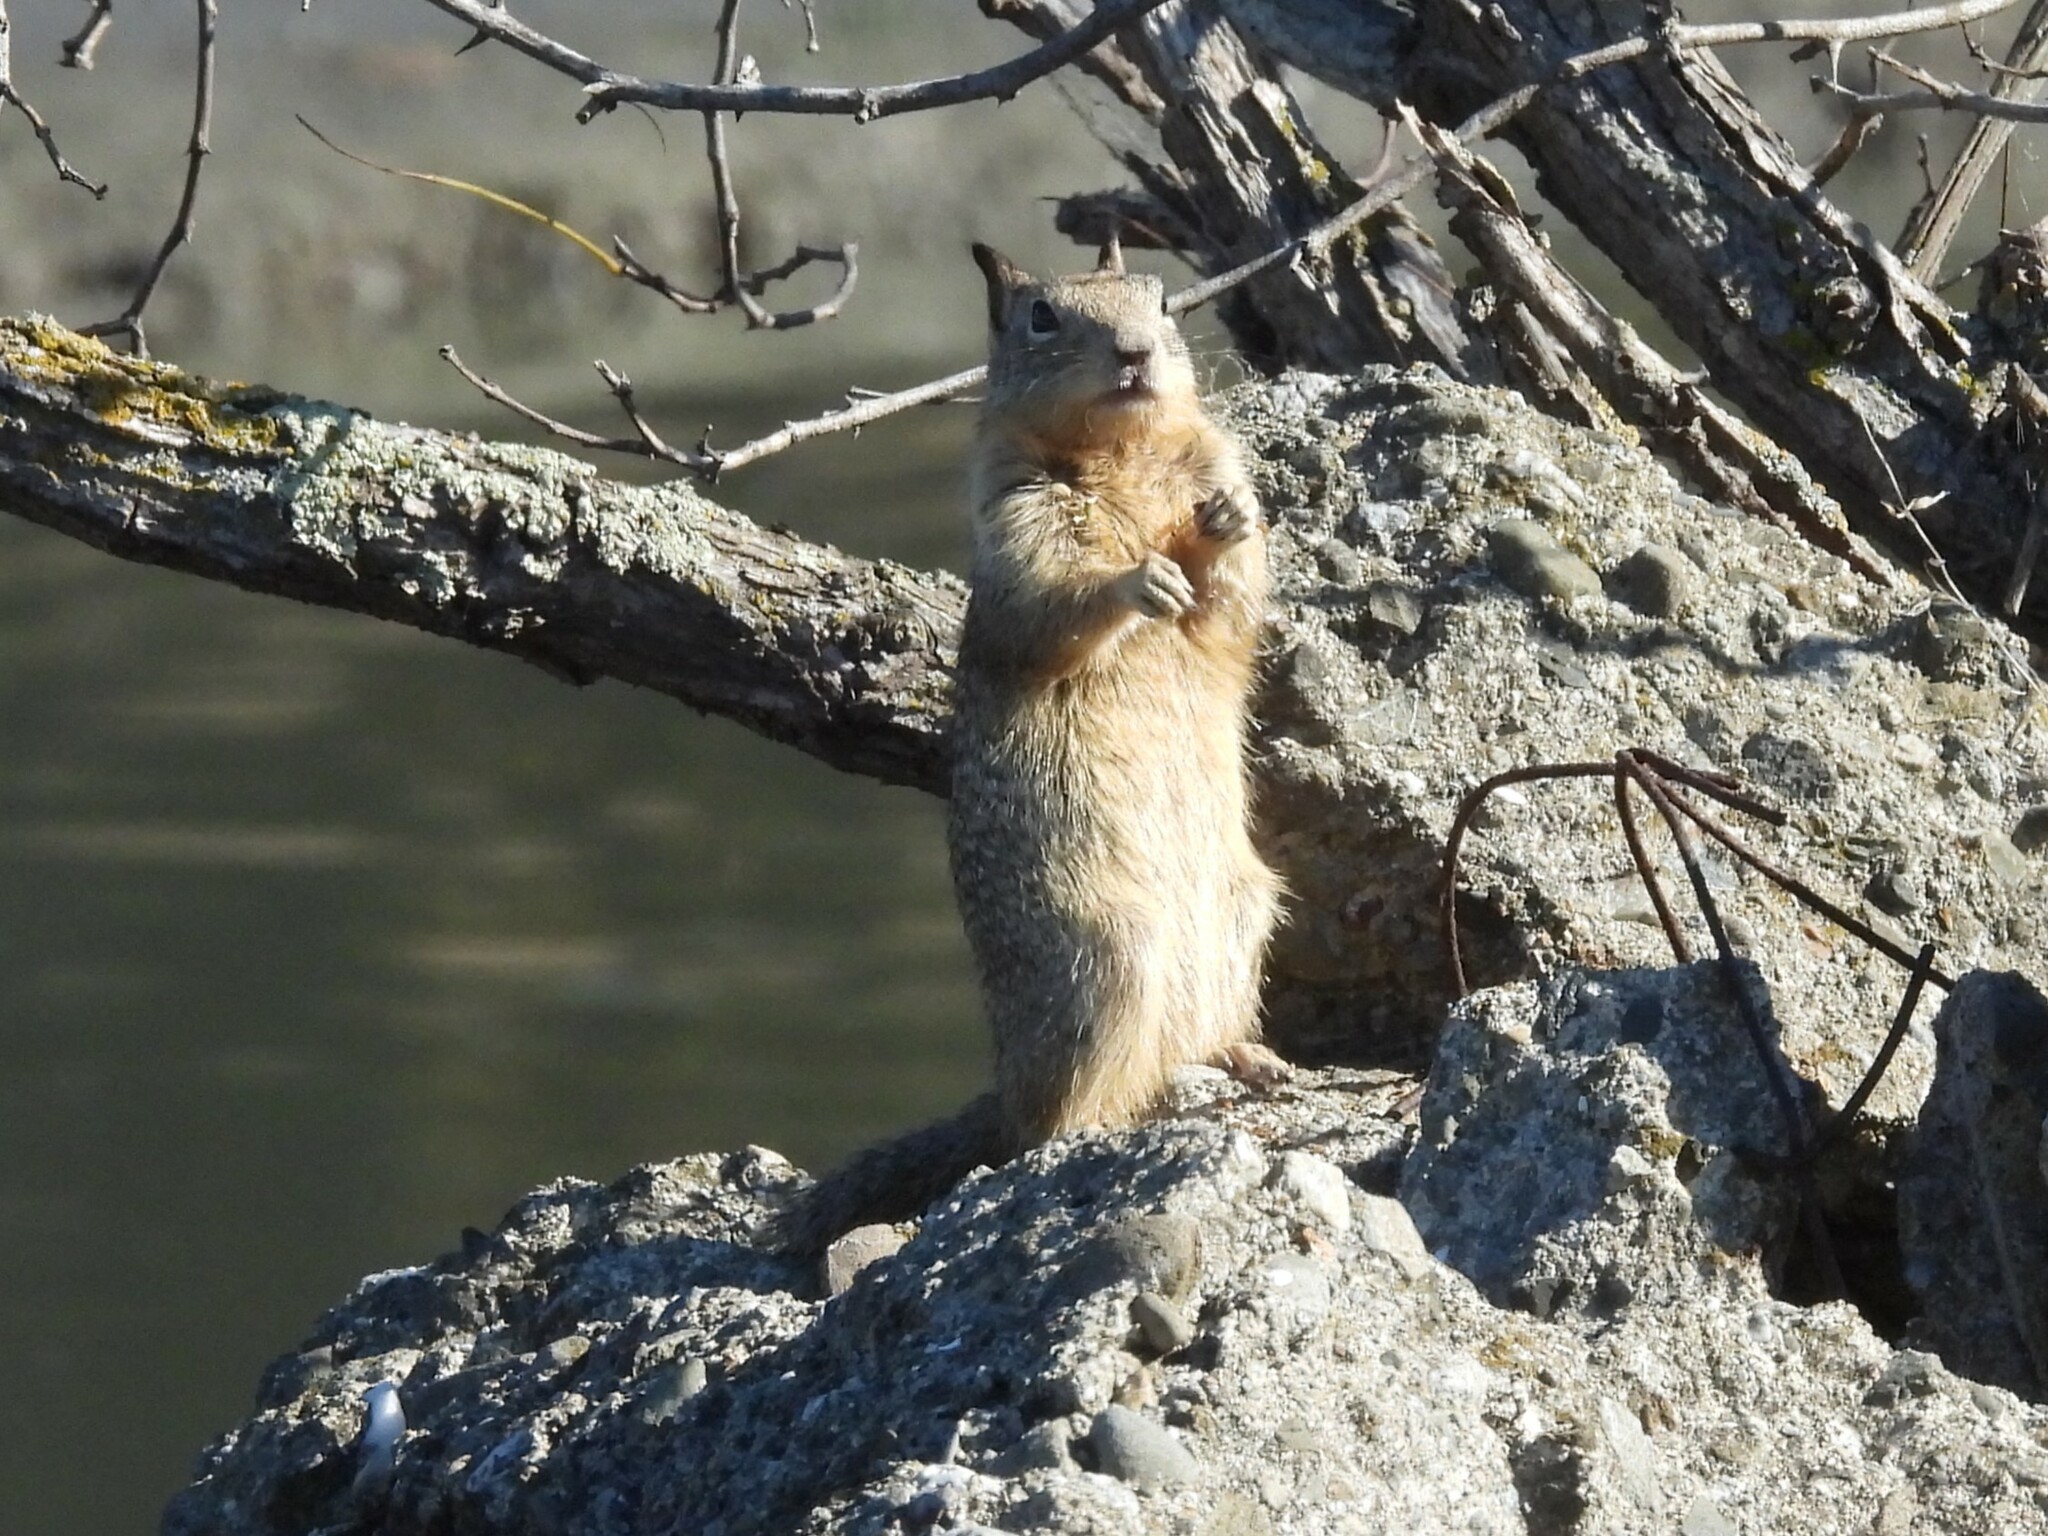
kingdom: Animalia
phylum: Chordata
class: Mammalia
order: Rodentia
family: Sciuridae
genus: Otospermophilus
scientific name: Otospermophilus beecheyi
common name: California ground squirrel
